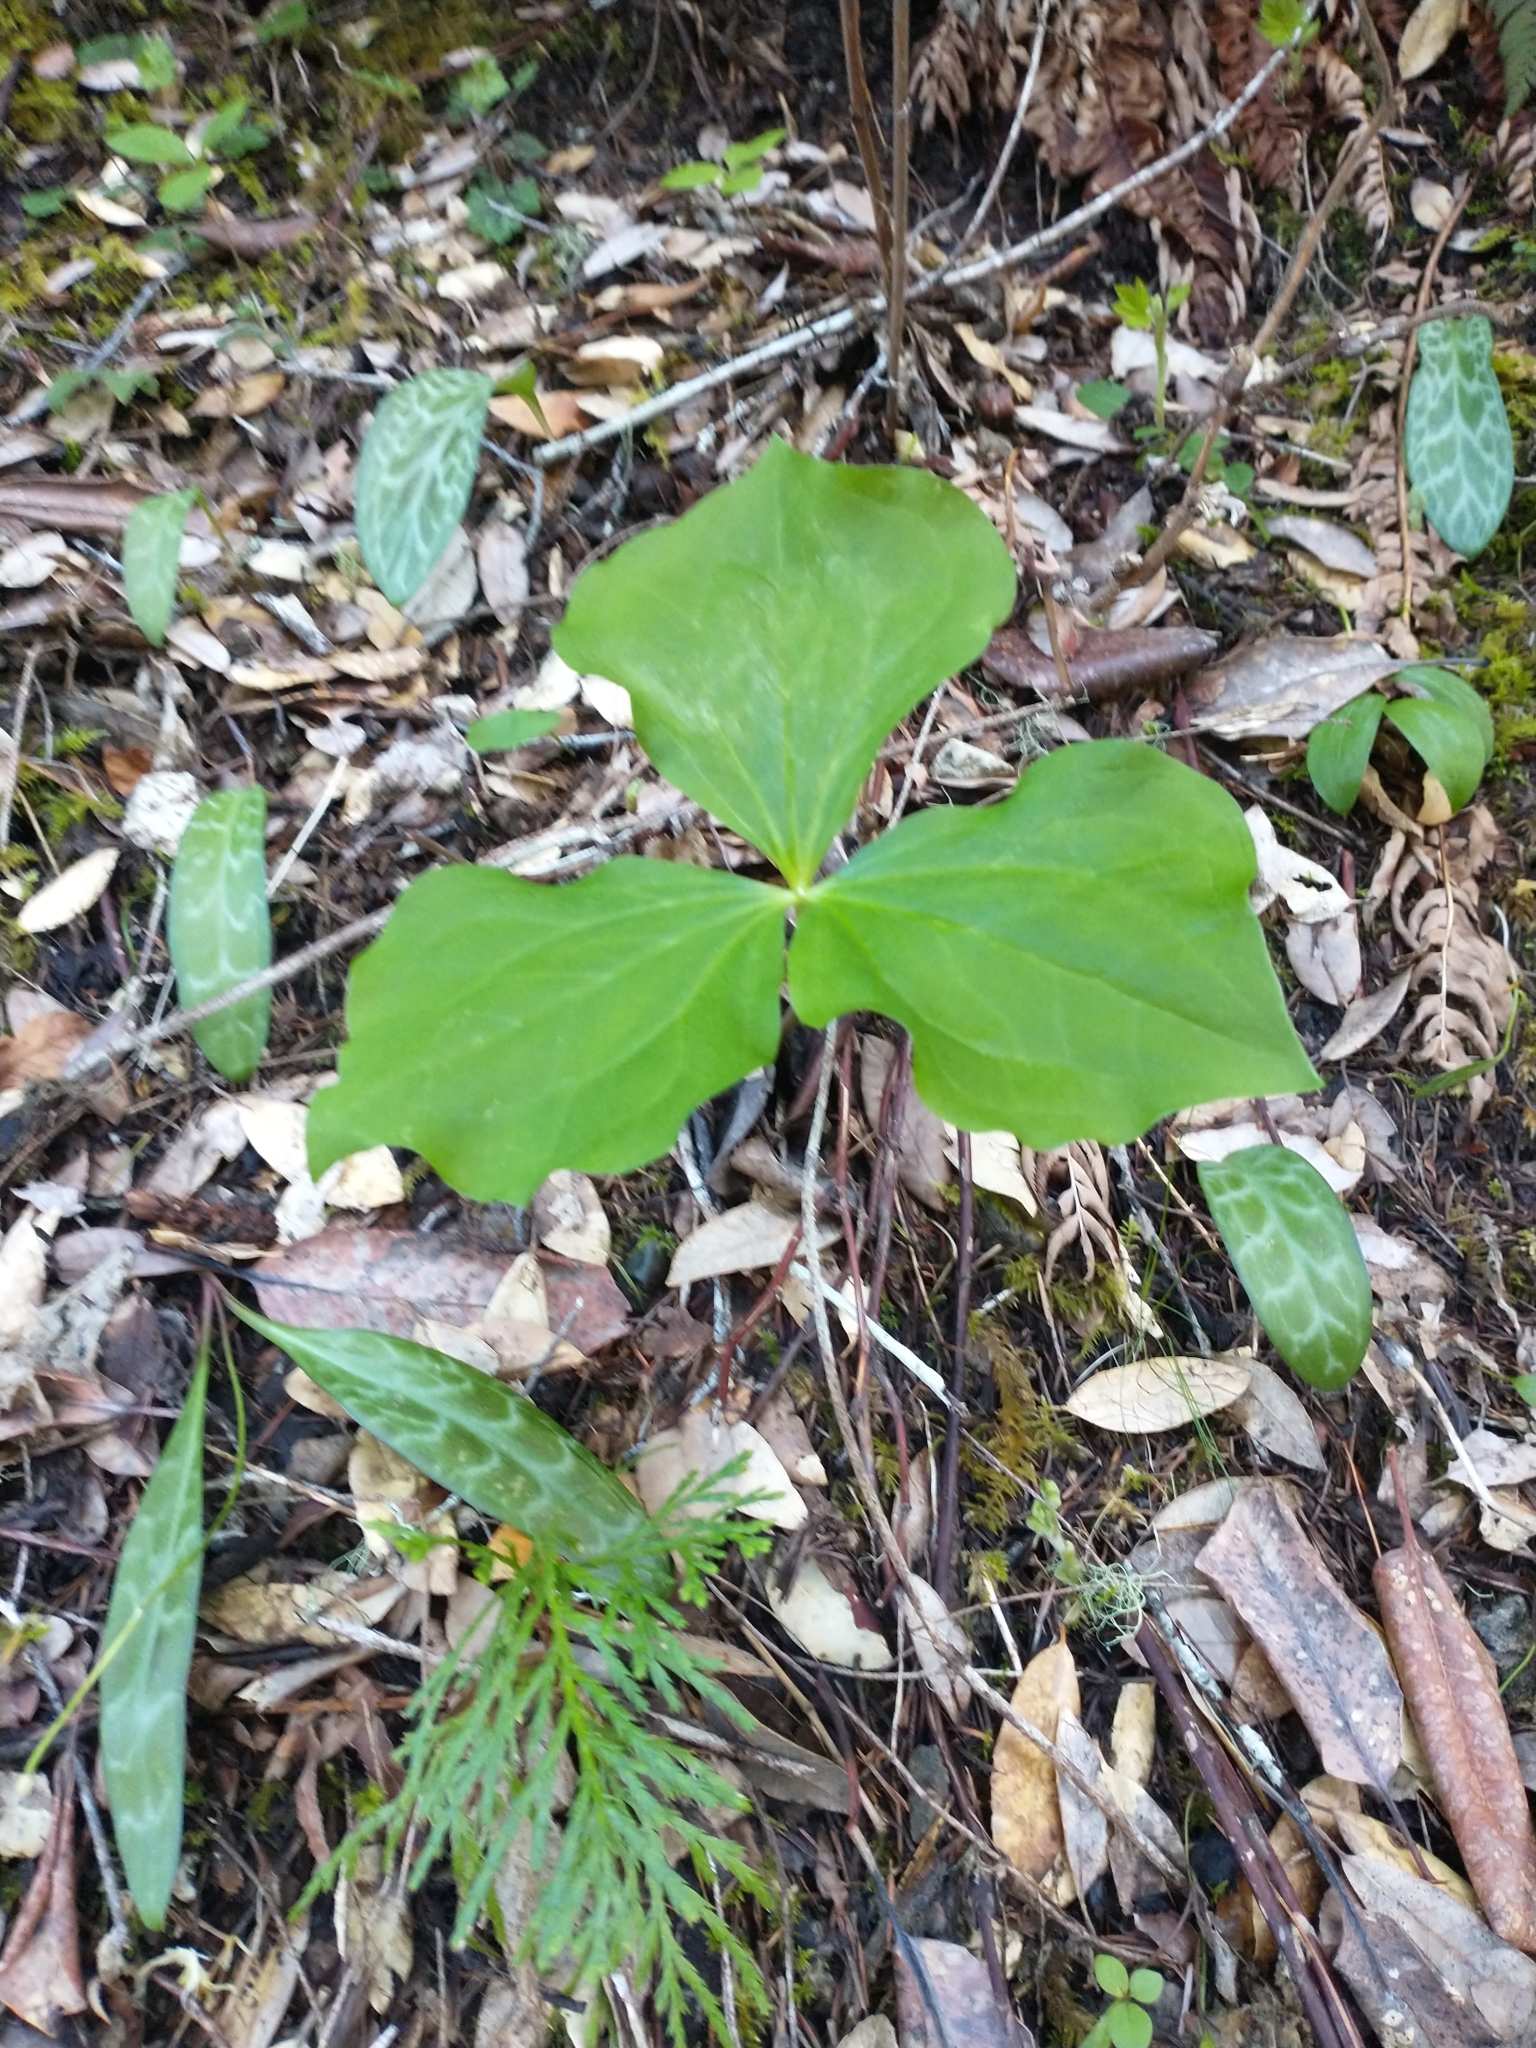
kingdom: Plantae
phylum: Tracheophyta
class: Liliopsida
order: Liliales
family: Melanthiaceae
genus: Trillium
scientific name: Trillium ovatum
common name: Pacific trillium
